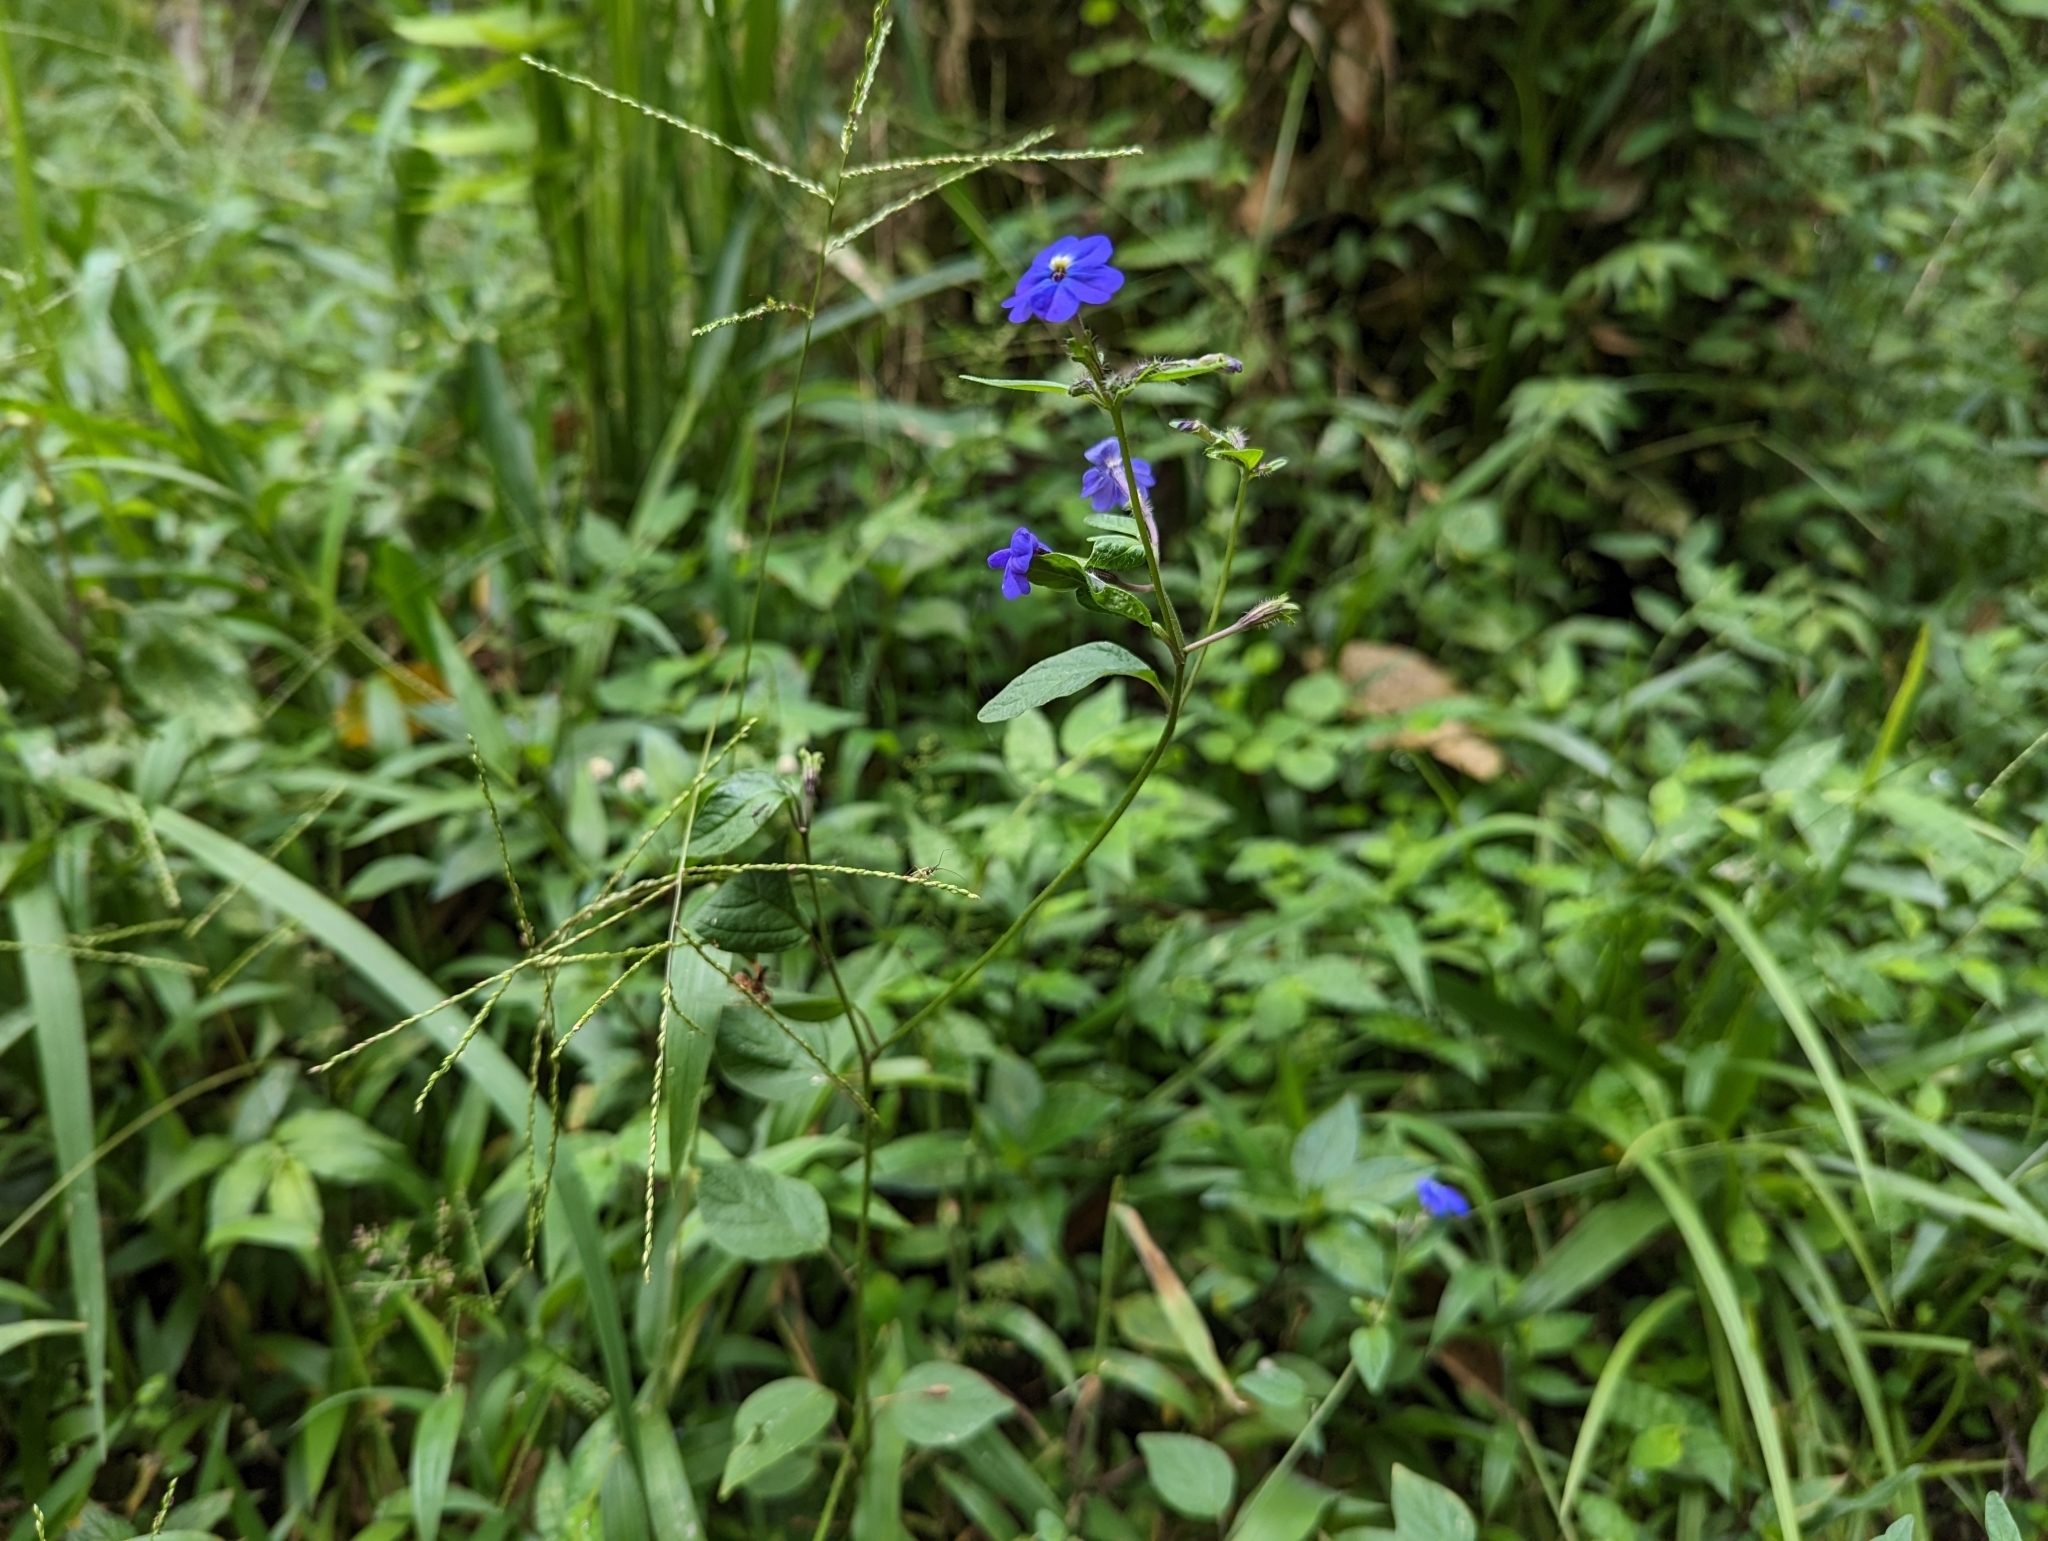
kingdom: Plantae
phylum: Tracheophyta
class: Magnoliopsida
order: Solanales
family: Solanaceae
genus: Browallia
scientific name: Browallia americana
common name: Jamaican forget-me-not
